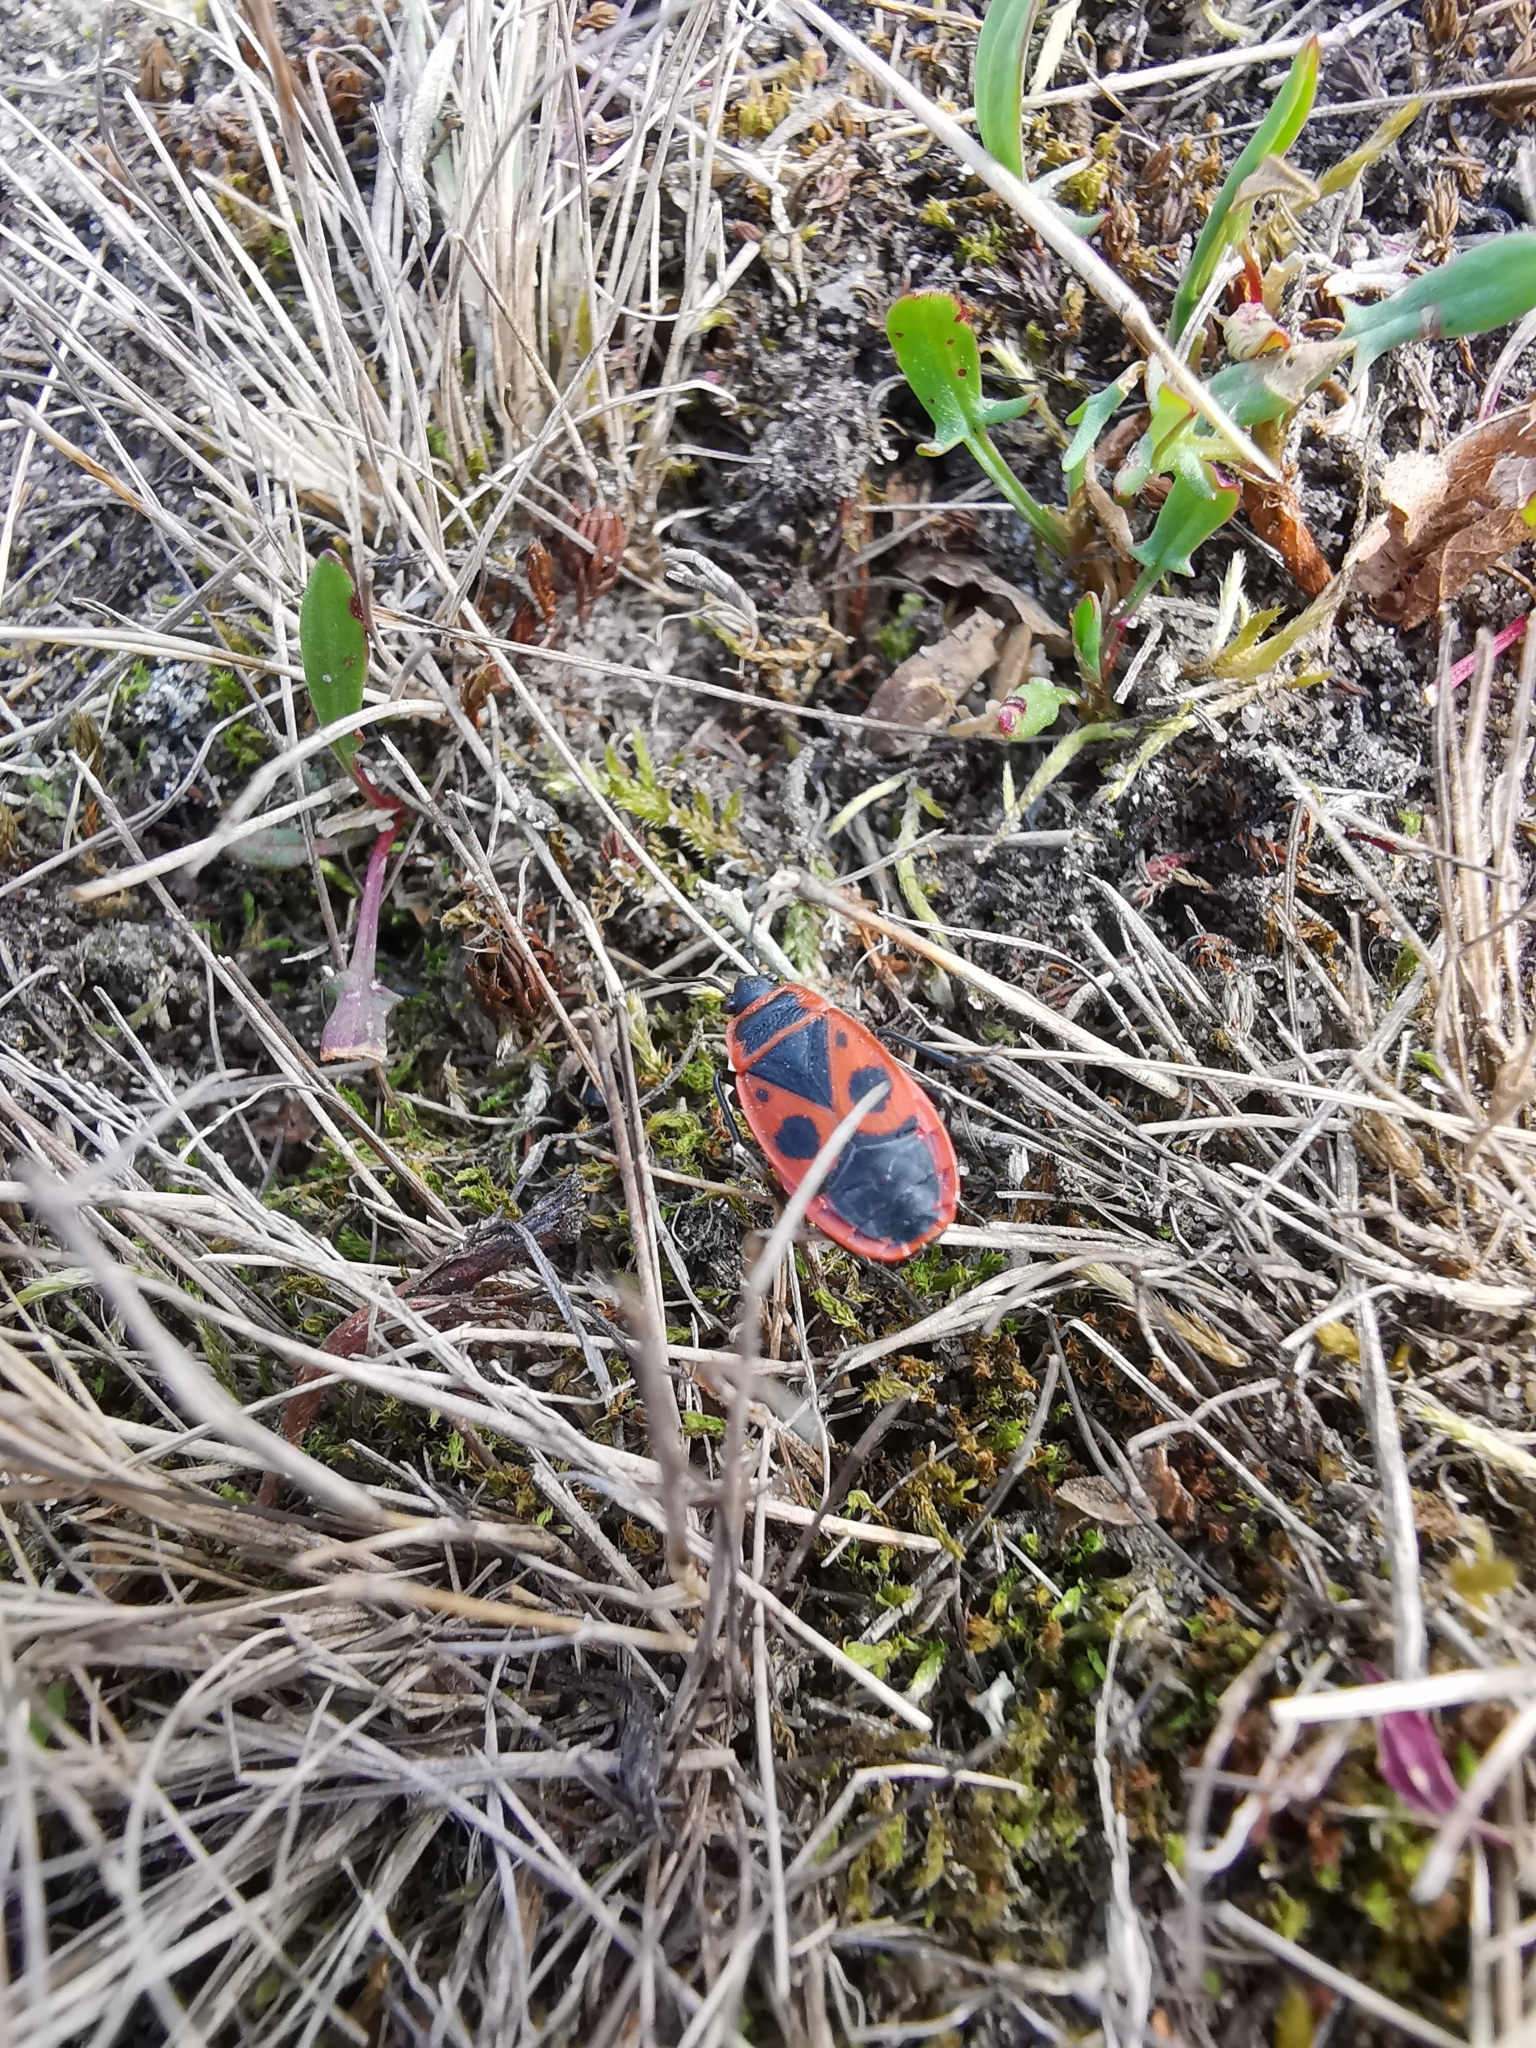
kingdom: Animalia
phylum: Arthropoda
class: Insecta
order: Hemiptera
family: Pyrrhocoridae
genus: Pyrrhocoris
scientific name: Pyrrhocoris apterus
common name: Firebug
